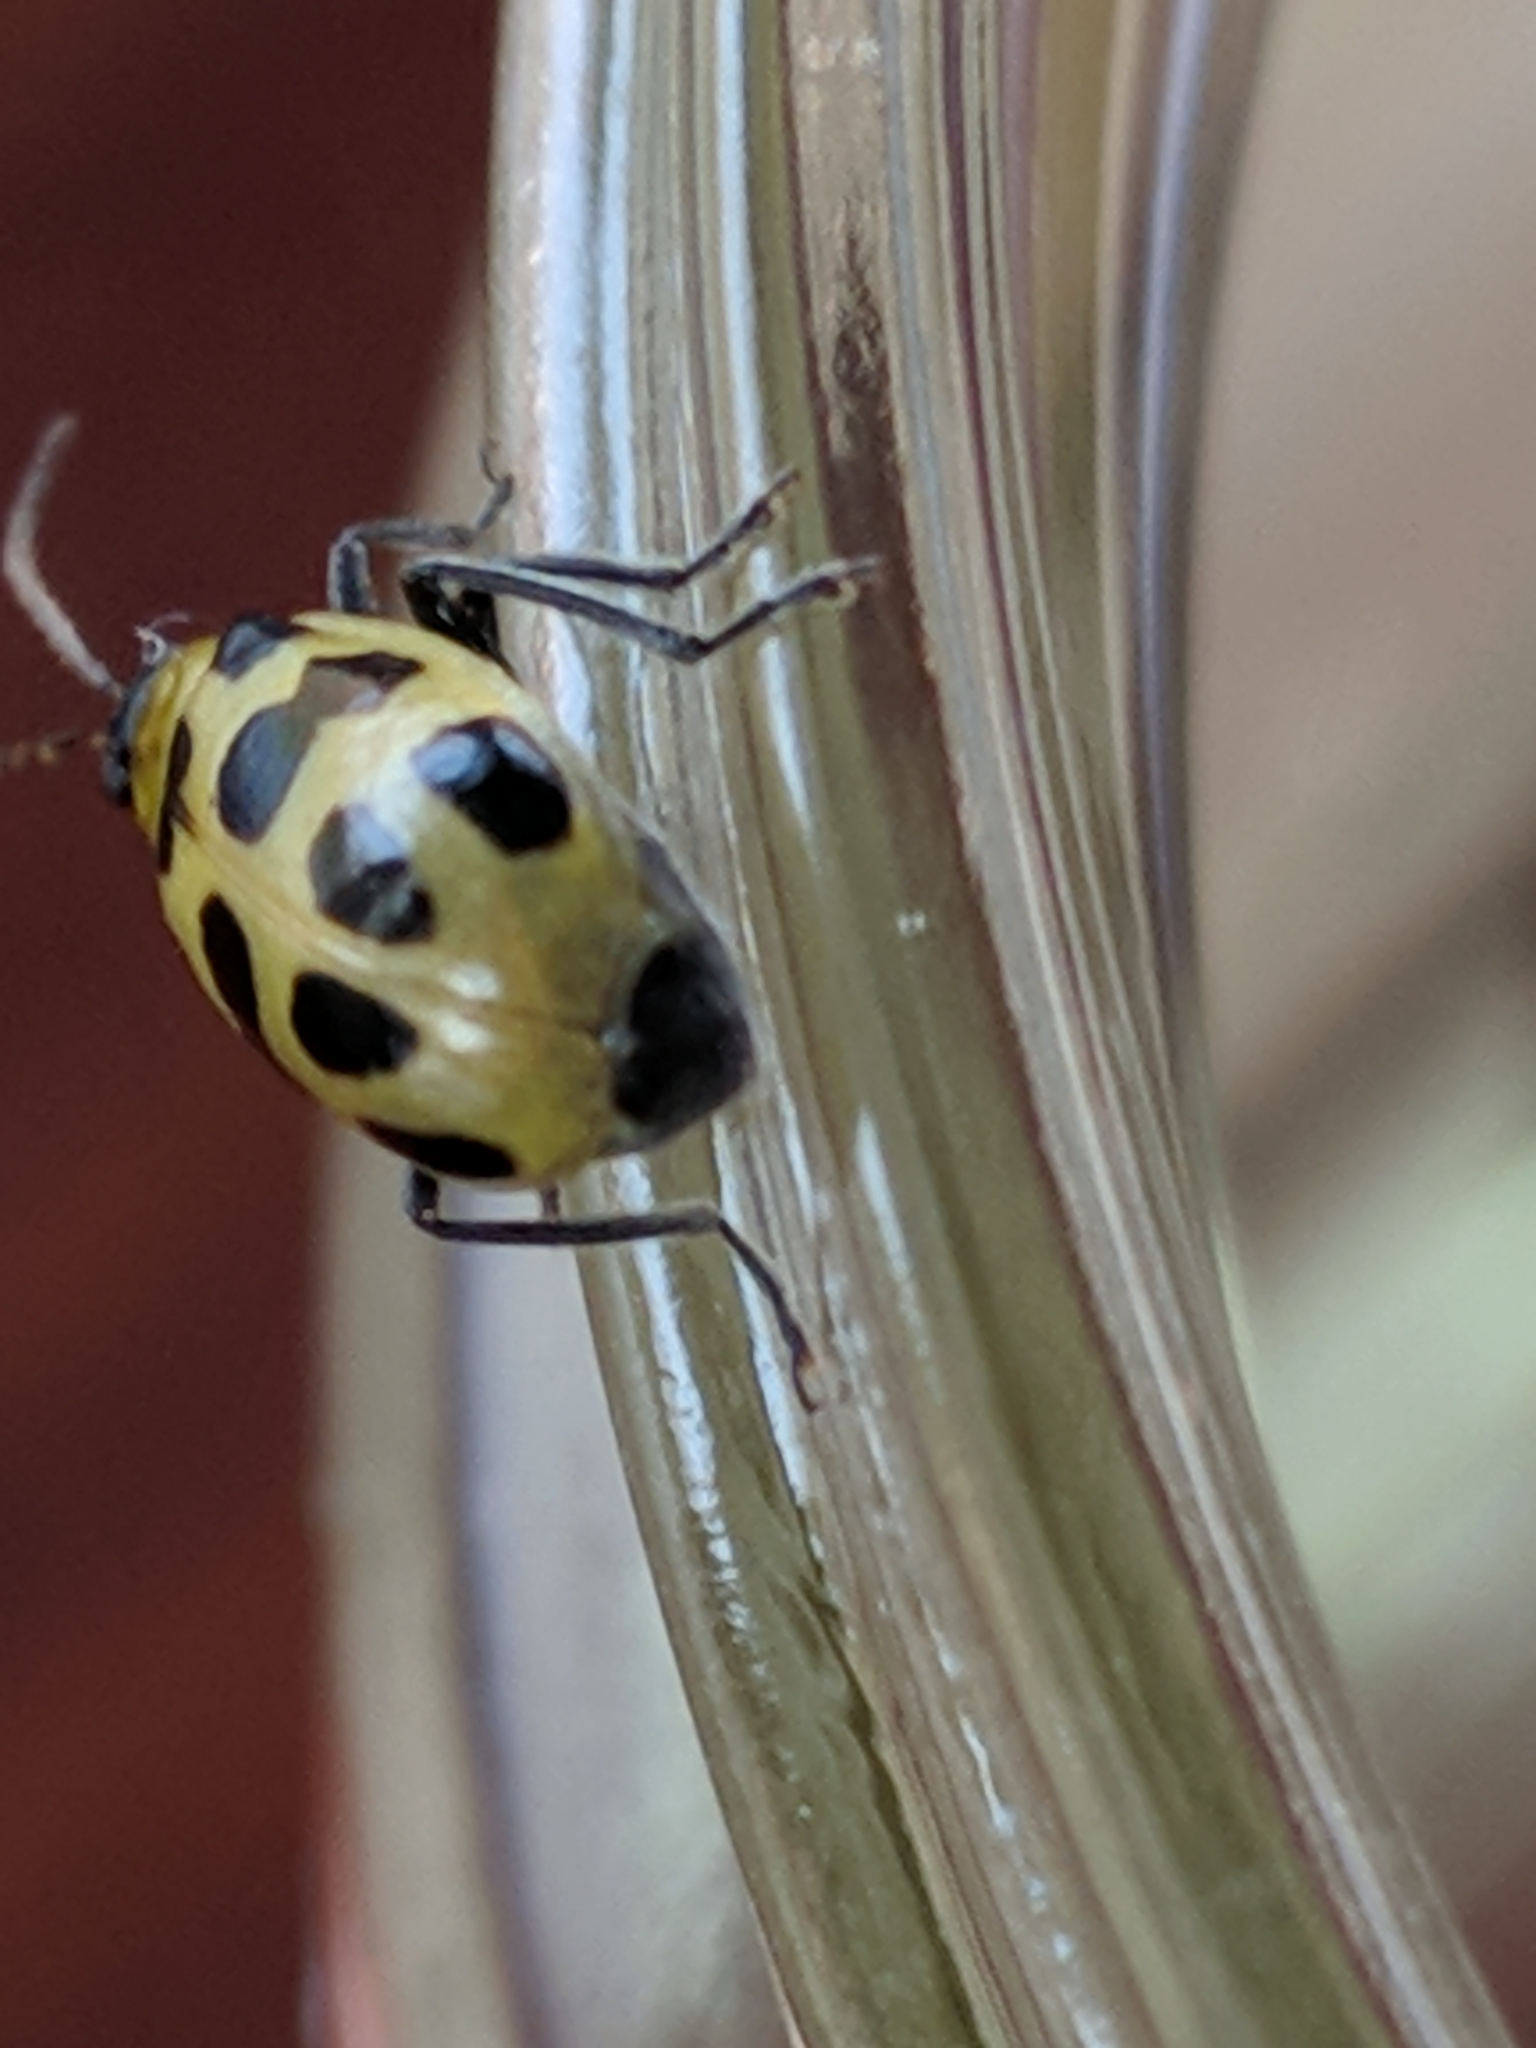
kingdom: Animalia
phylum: Arthropoda
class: Insecta
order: Coleoptera
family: Chrysomelidae
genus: Diabrotica
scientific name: Diabrotica undecimpunctata
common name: Spotted cucumber beetle
